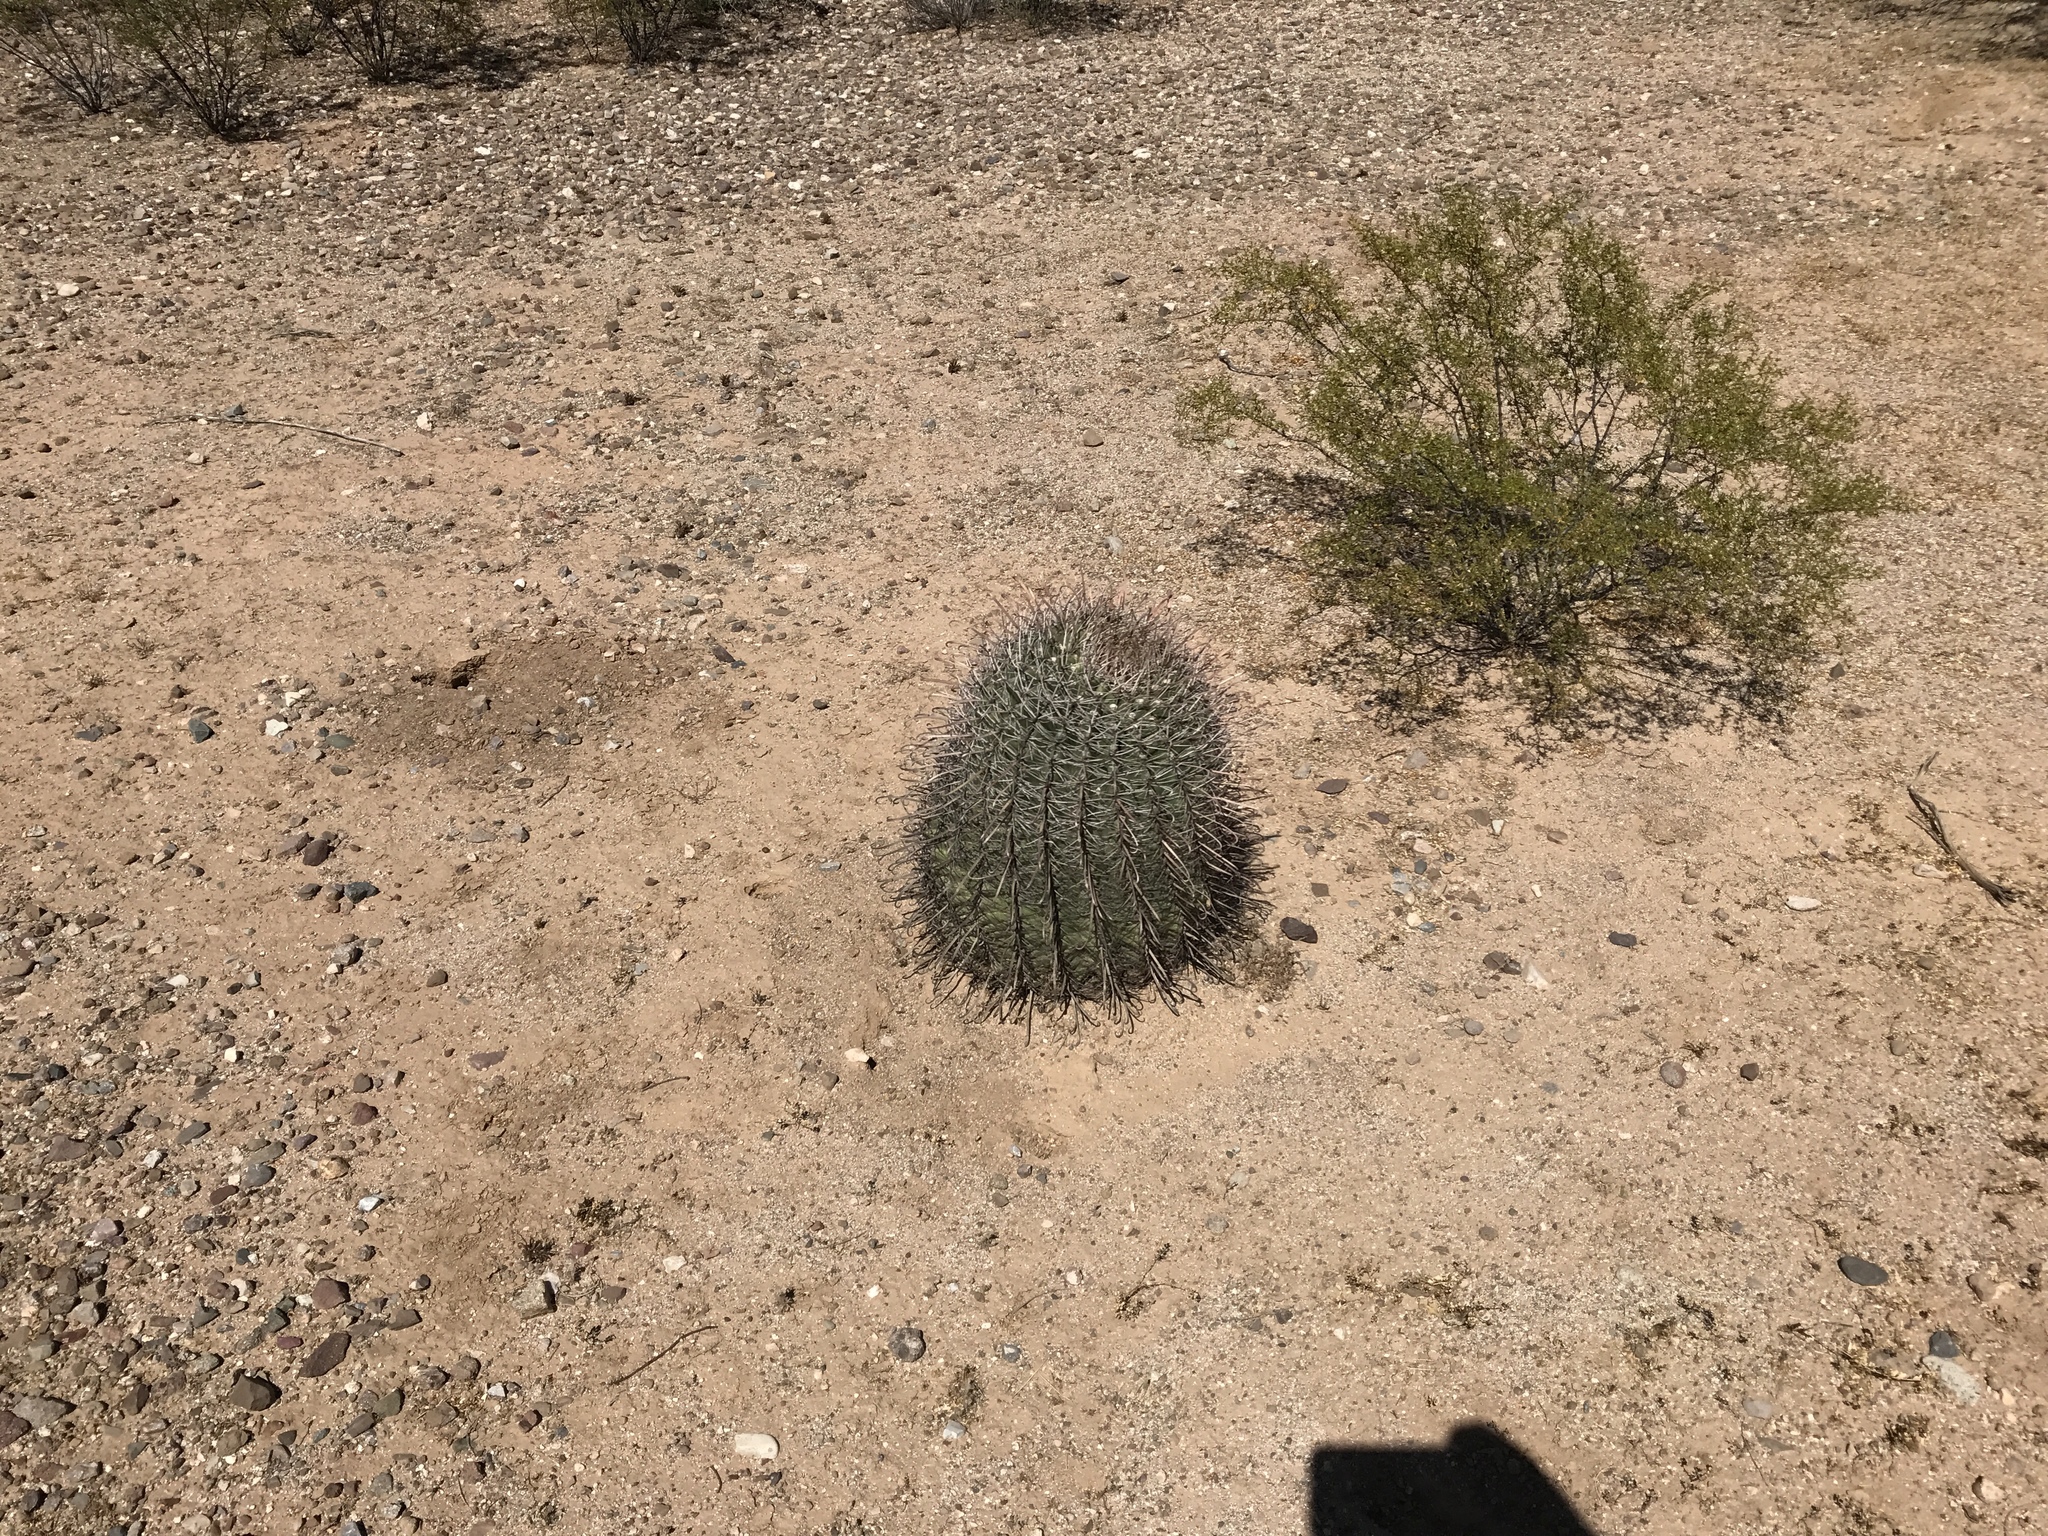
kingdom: Plantae
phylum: Tracheophyta
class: Magnoliopsida
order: Caryophyllales
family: Cactaceae
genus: Ferocactus
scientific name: Ferocactus wislizeni
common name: Candy barrel cactus
